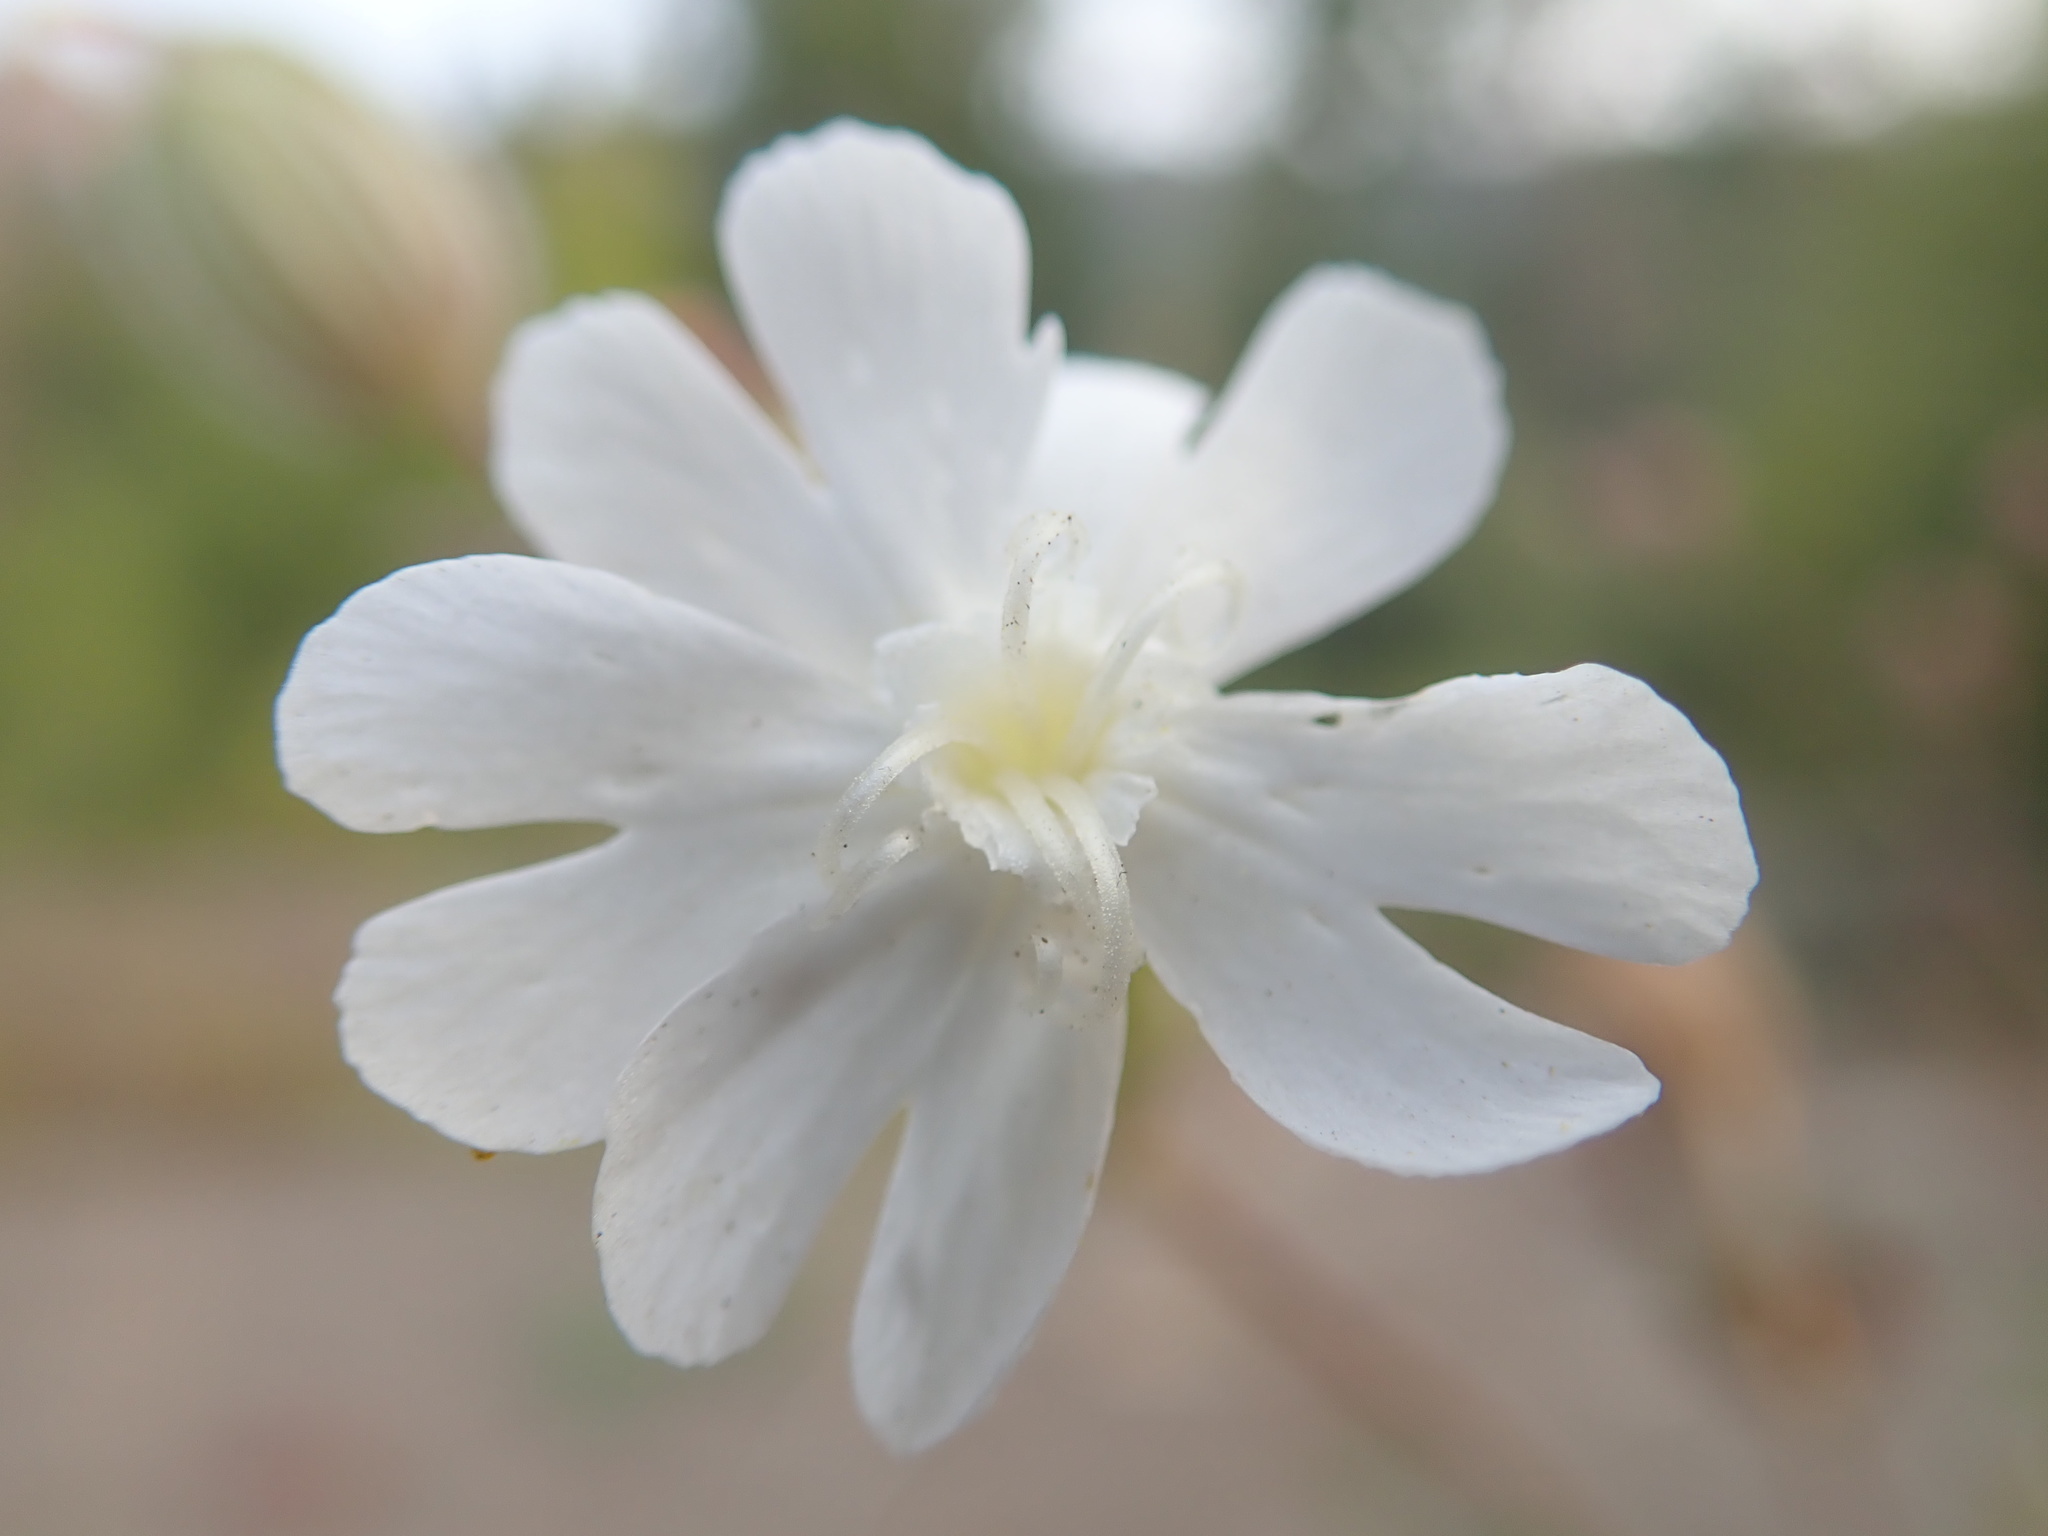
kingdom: Plantae
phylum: Tracheophyta
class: Magnoliopsida
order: Caryophyllales
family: Caryophyllaceae
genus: Silene
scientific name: Silene latifolia
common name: White campion
